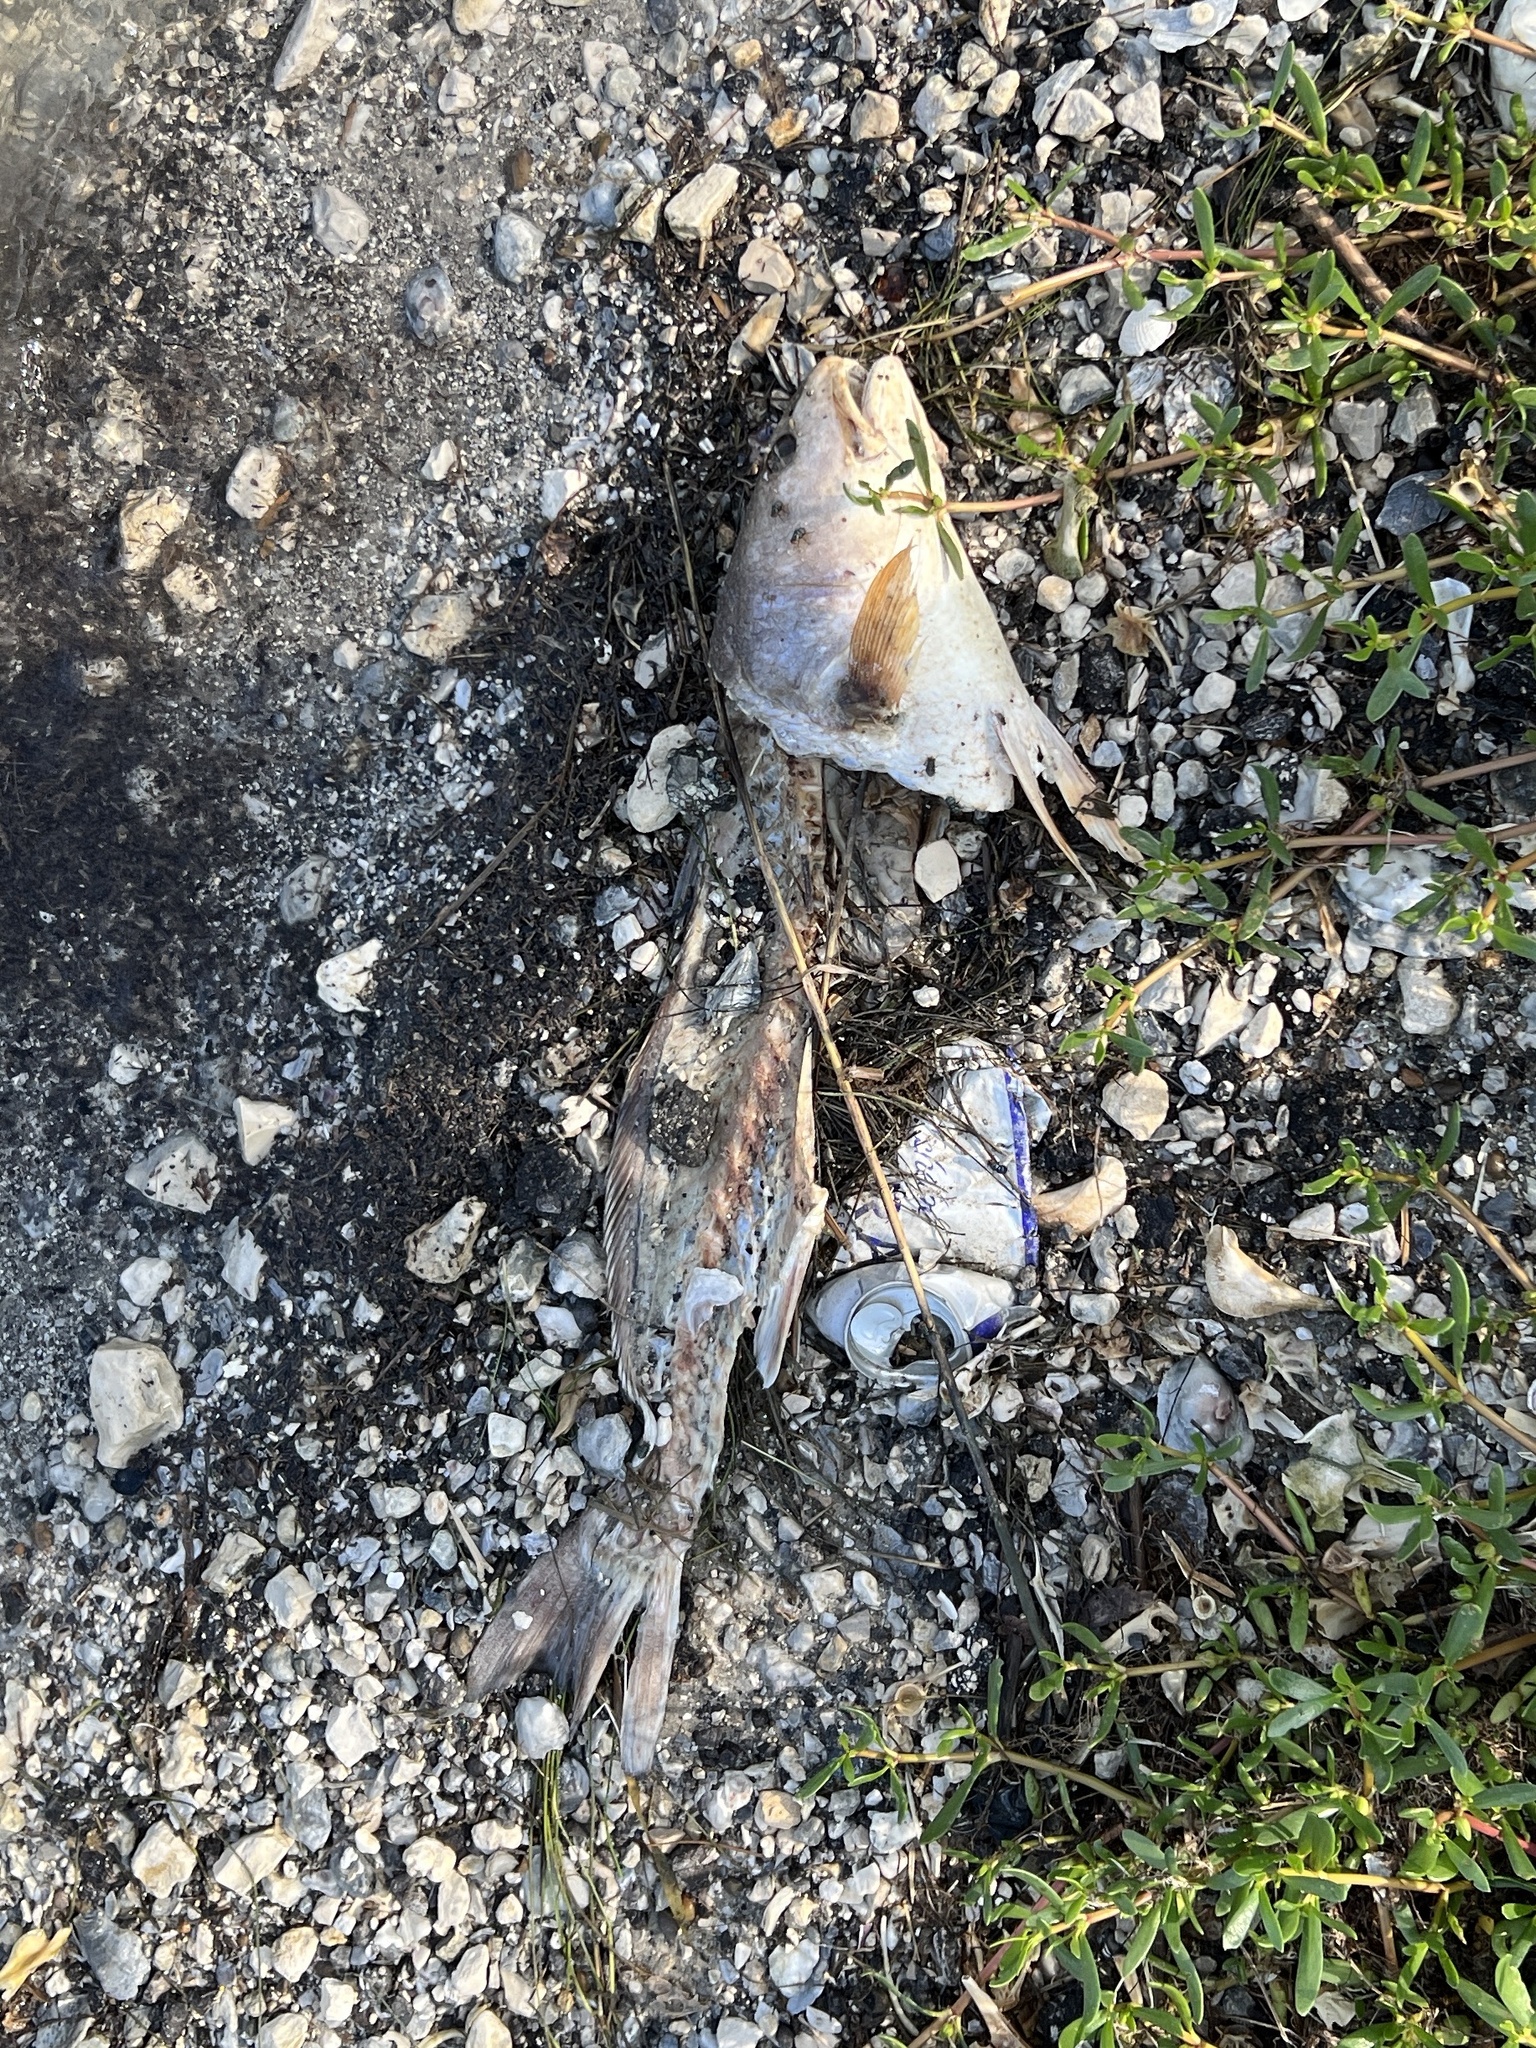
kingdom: Animalia
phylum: Chordata
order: Perciformes
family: Sciaenidae
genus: Sciaenops
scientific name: Sciaenops ocellatus
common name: Red drum
